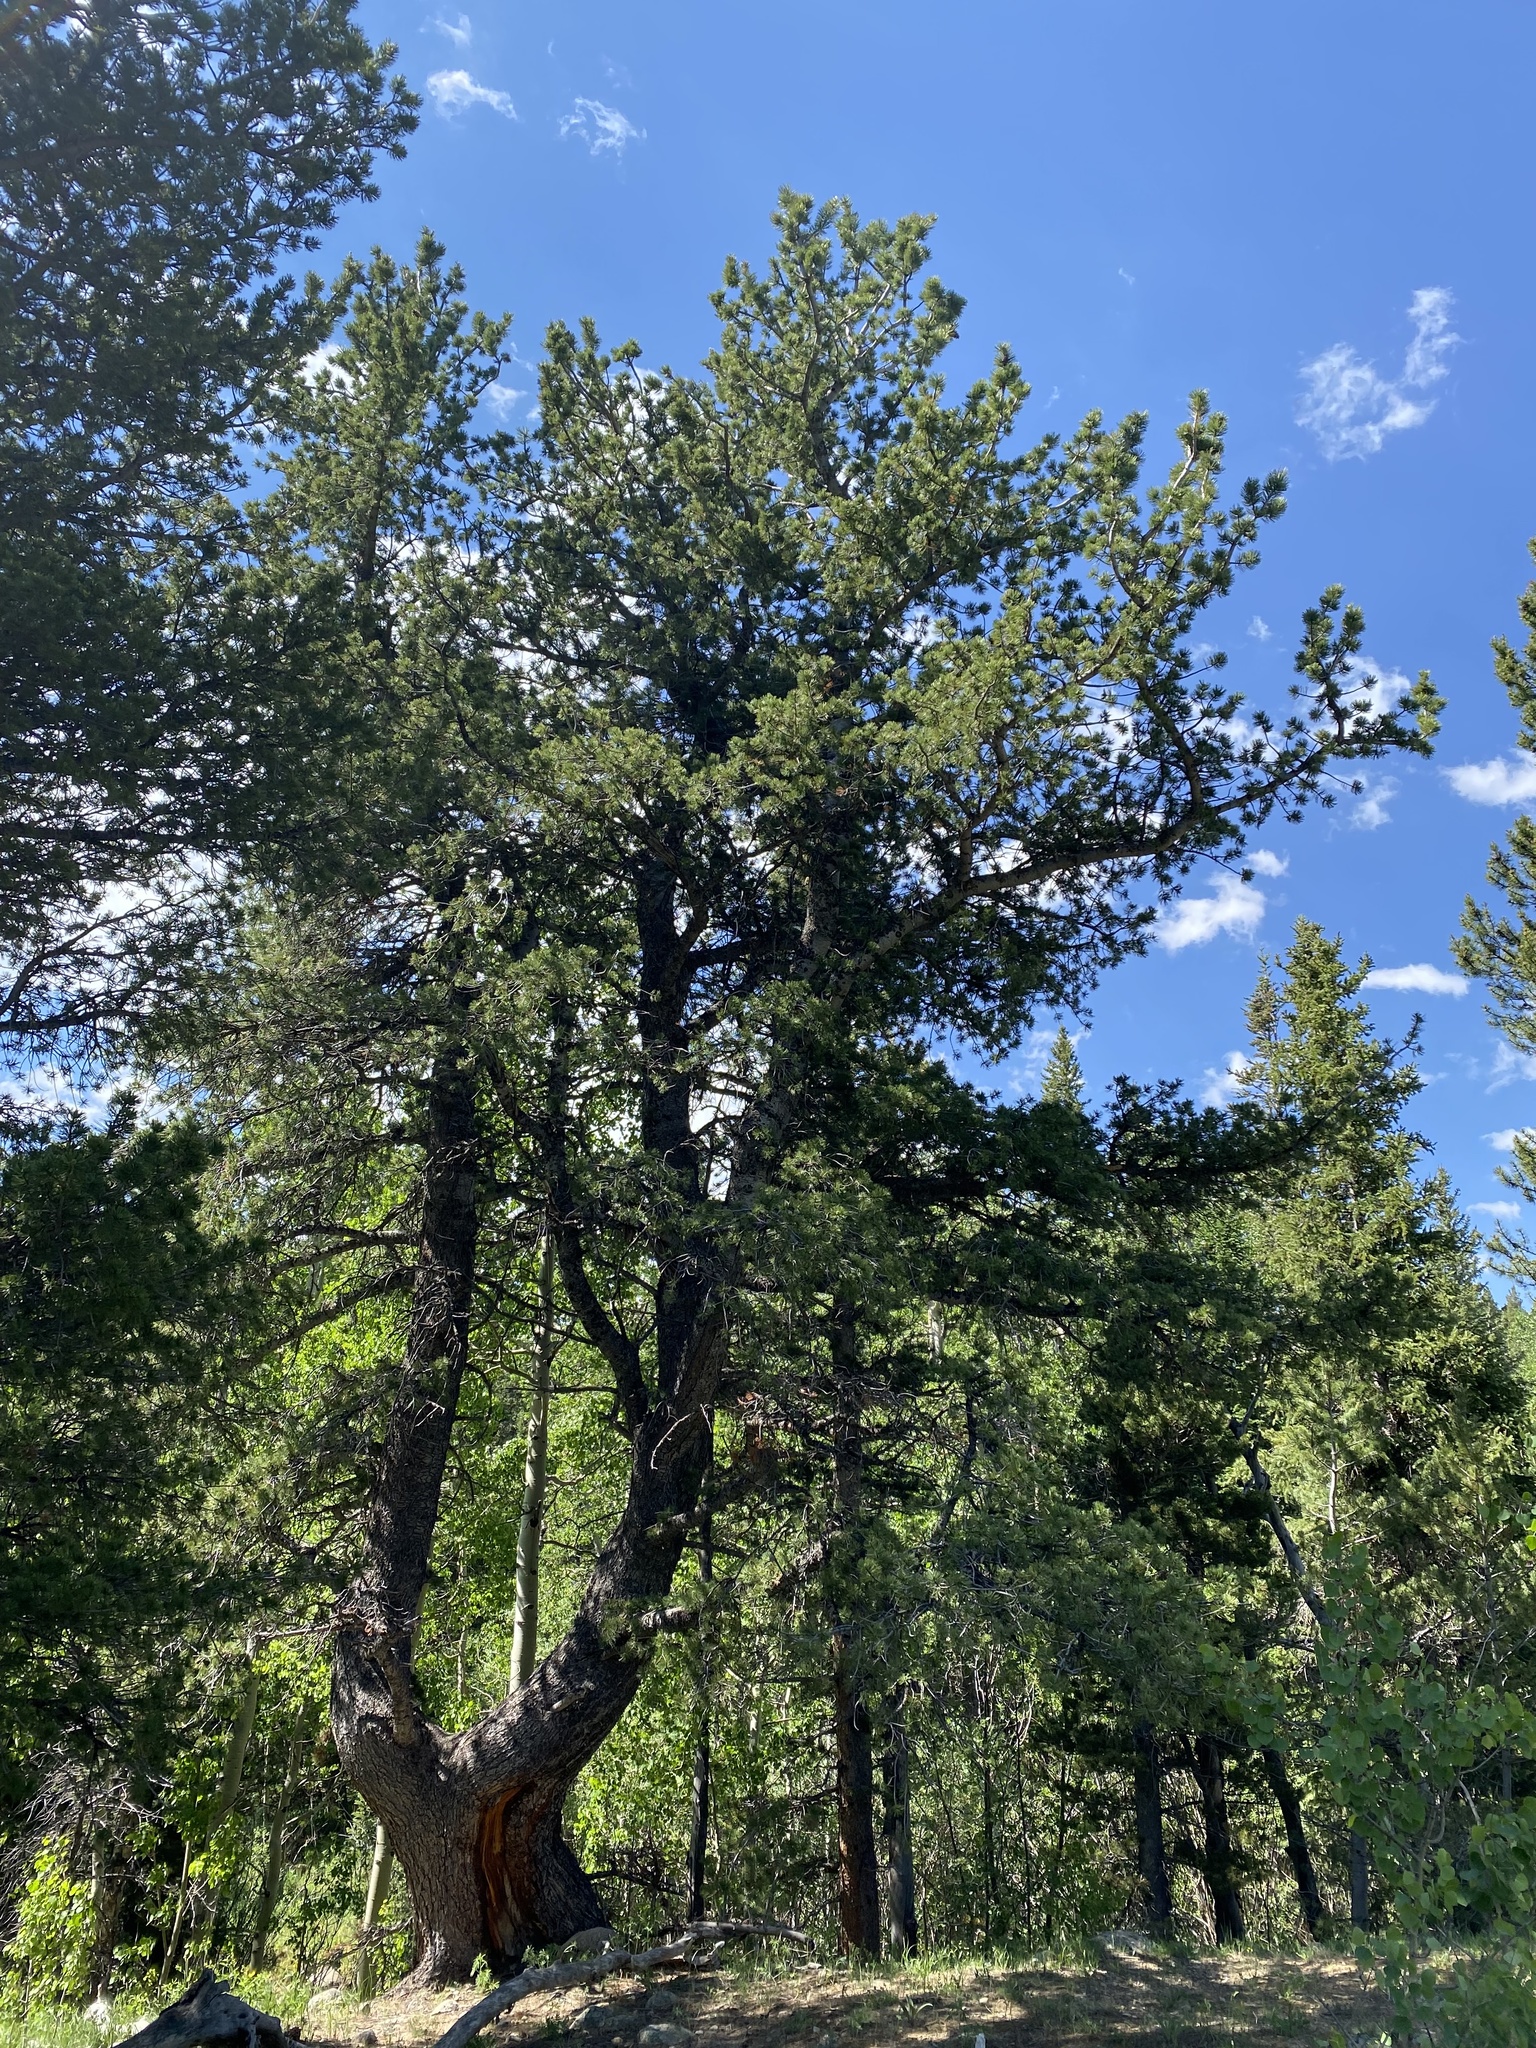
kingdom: Plantae
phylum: Tracheophyta
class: Pinopsida
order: Pinales
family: Pinaceae
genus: Pinus
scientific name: Pinus flexilis
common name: Limber pine
